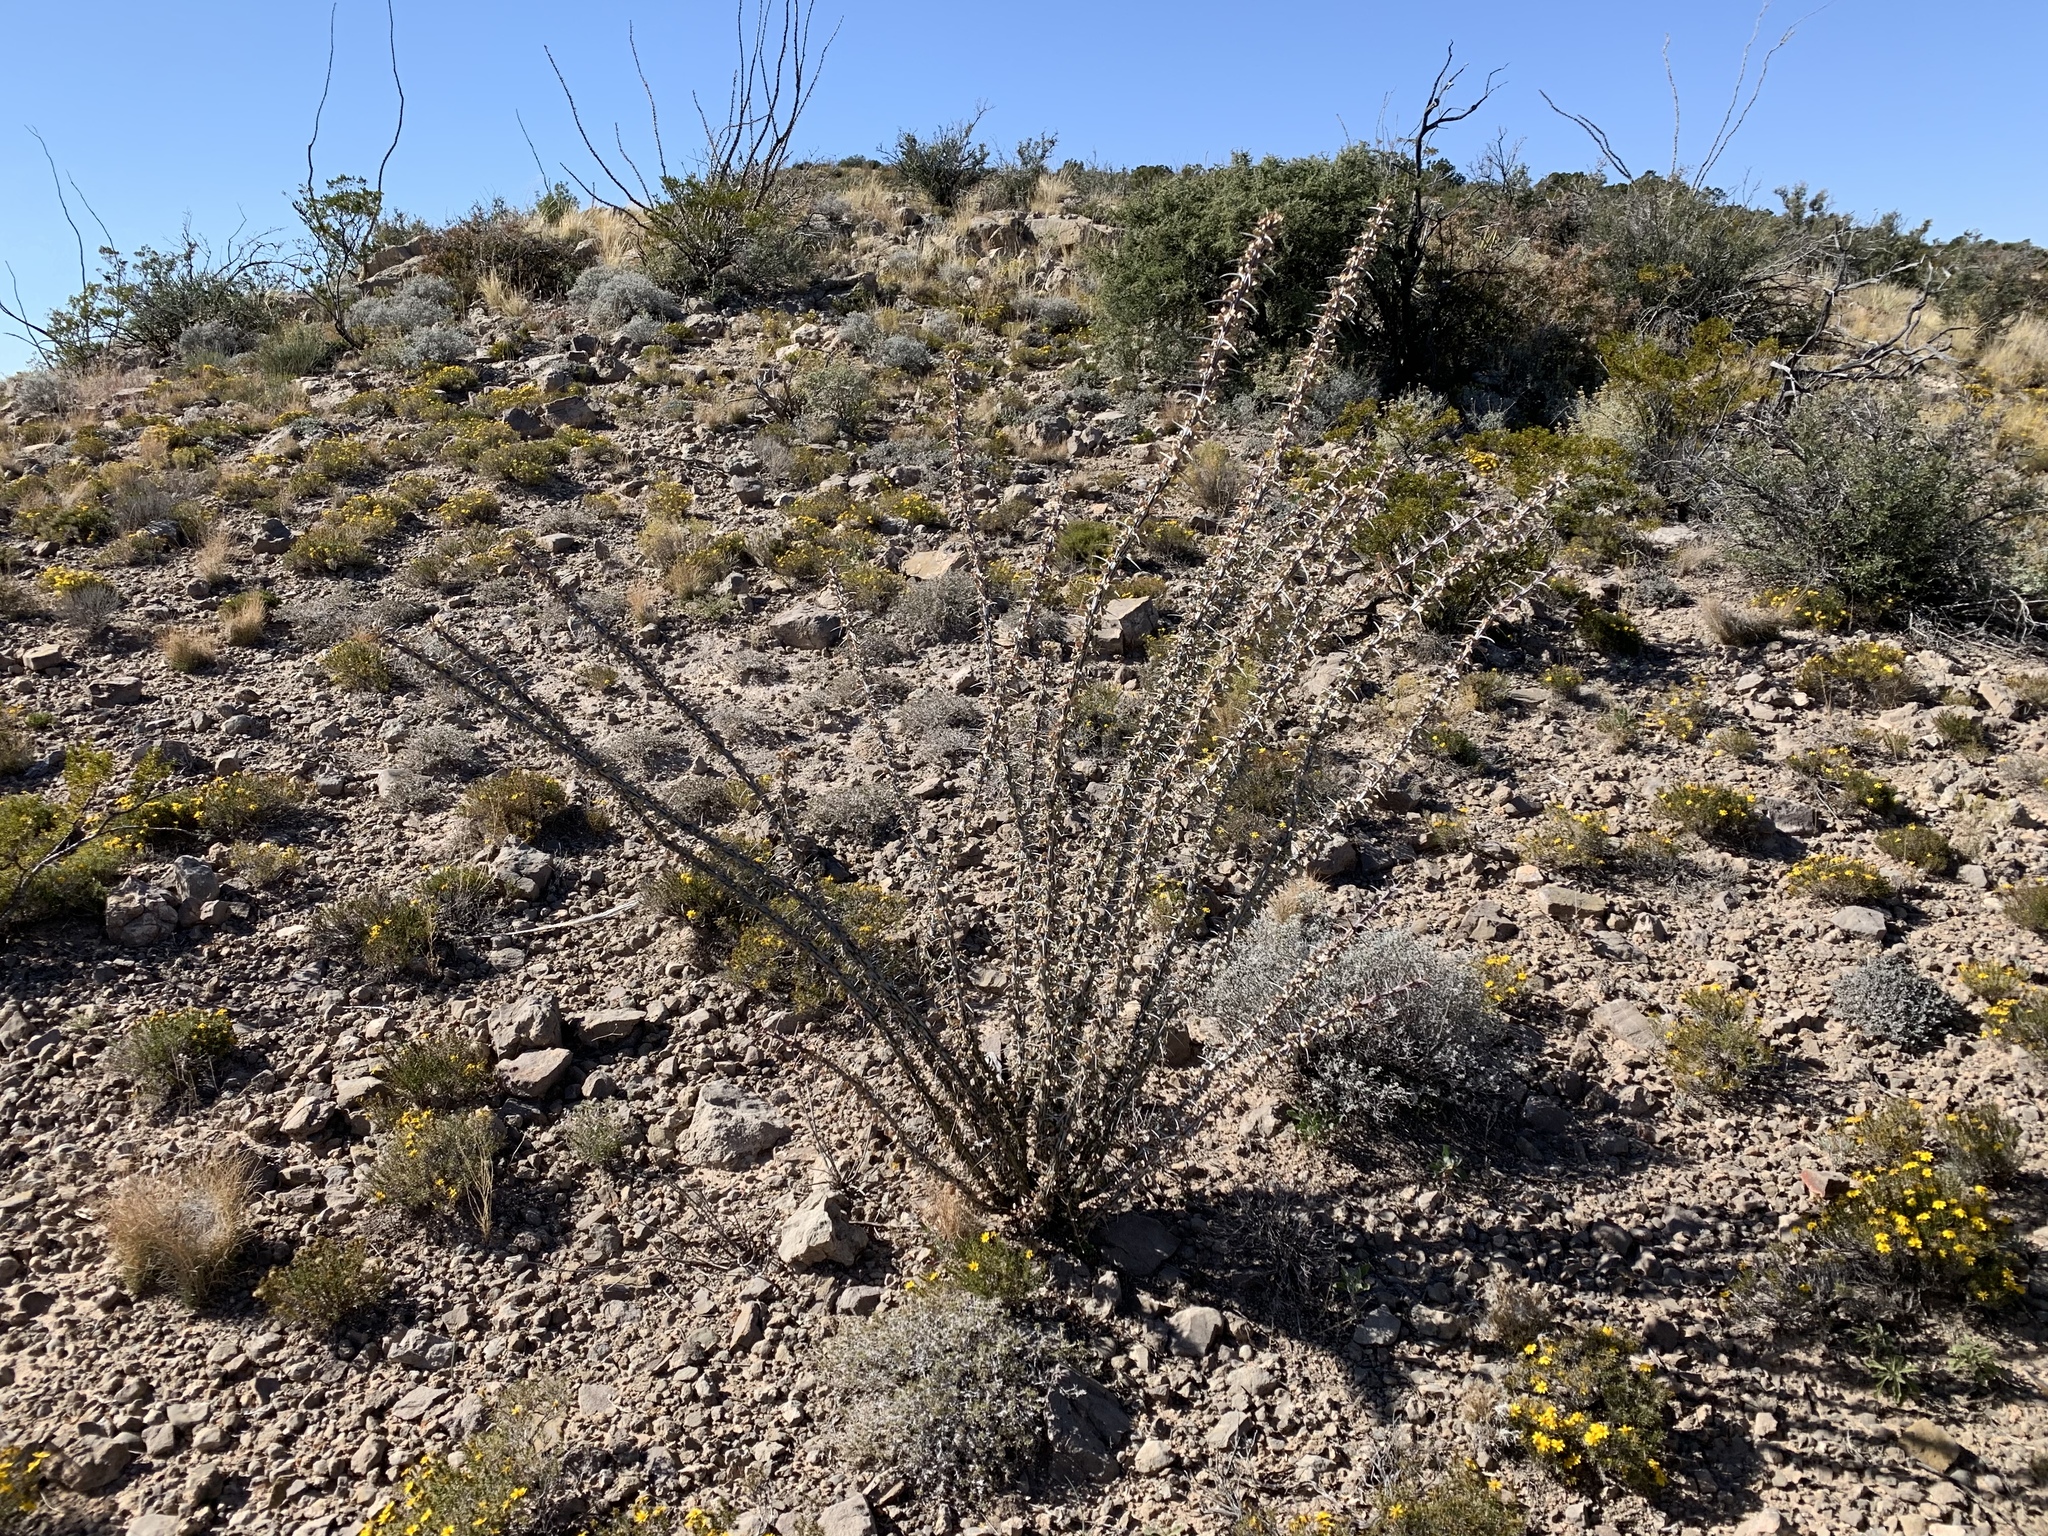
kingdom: Plantae
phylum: Tracheophyta
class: Magnoliopsida
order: Ericales
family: Fouquieriaceae
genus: Fouquieria
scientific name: Fouquieria splendens
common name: Vine-cactus
